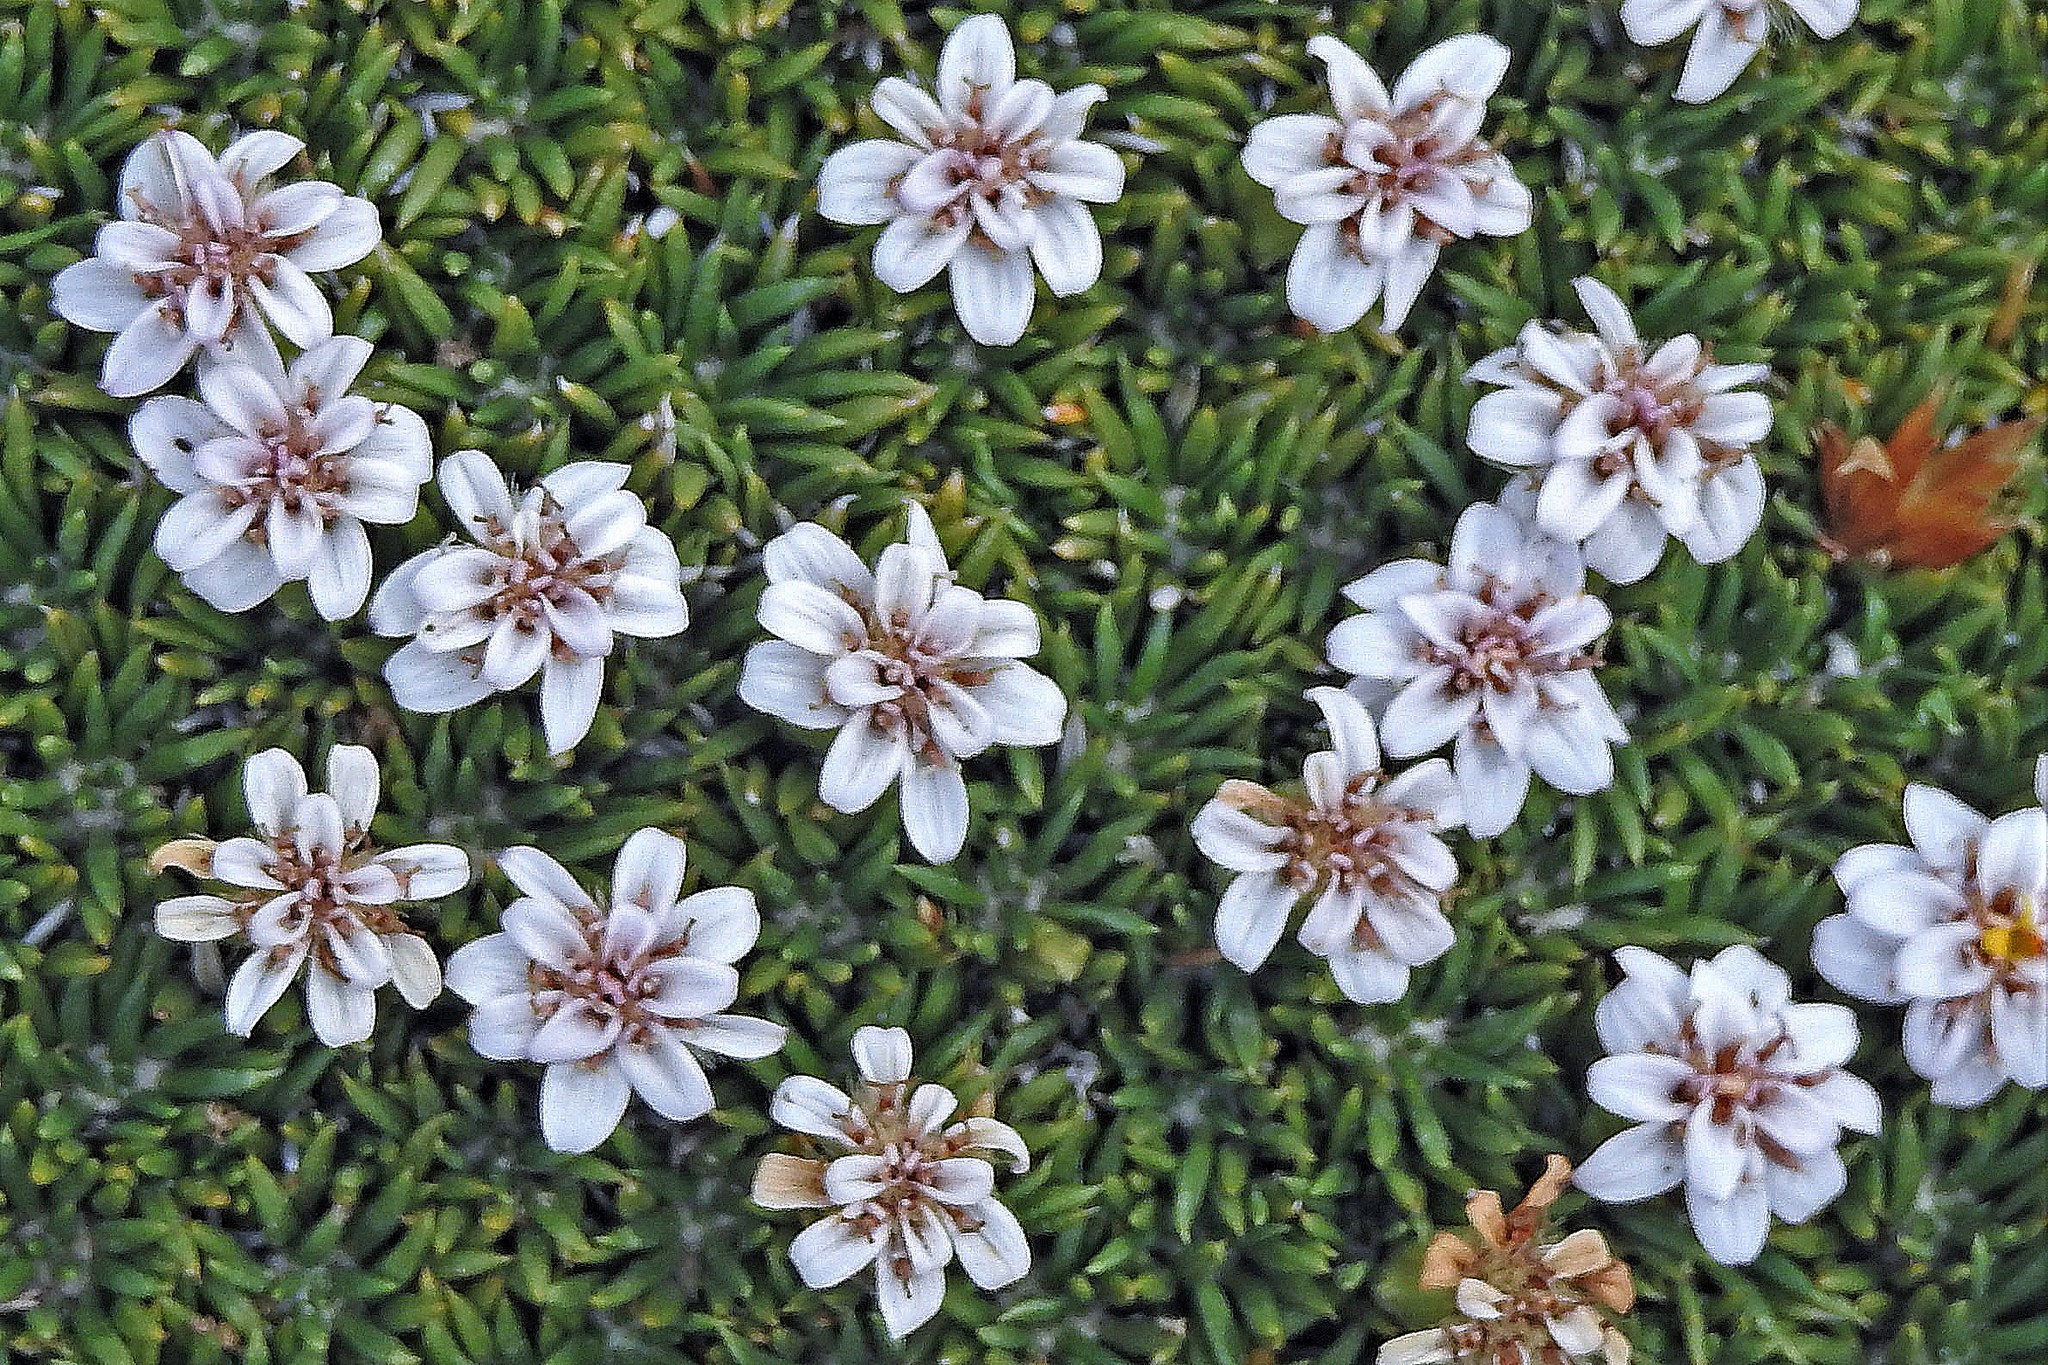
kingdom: Plantae
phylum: Tracheophyta
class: Magnoliopsida
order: Asterales
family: Asteraceae
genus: Burkartia
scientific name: Burkartia lanigera
